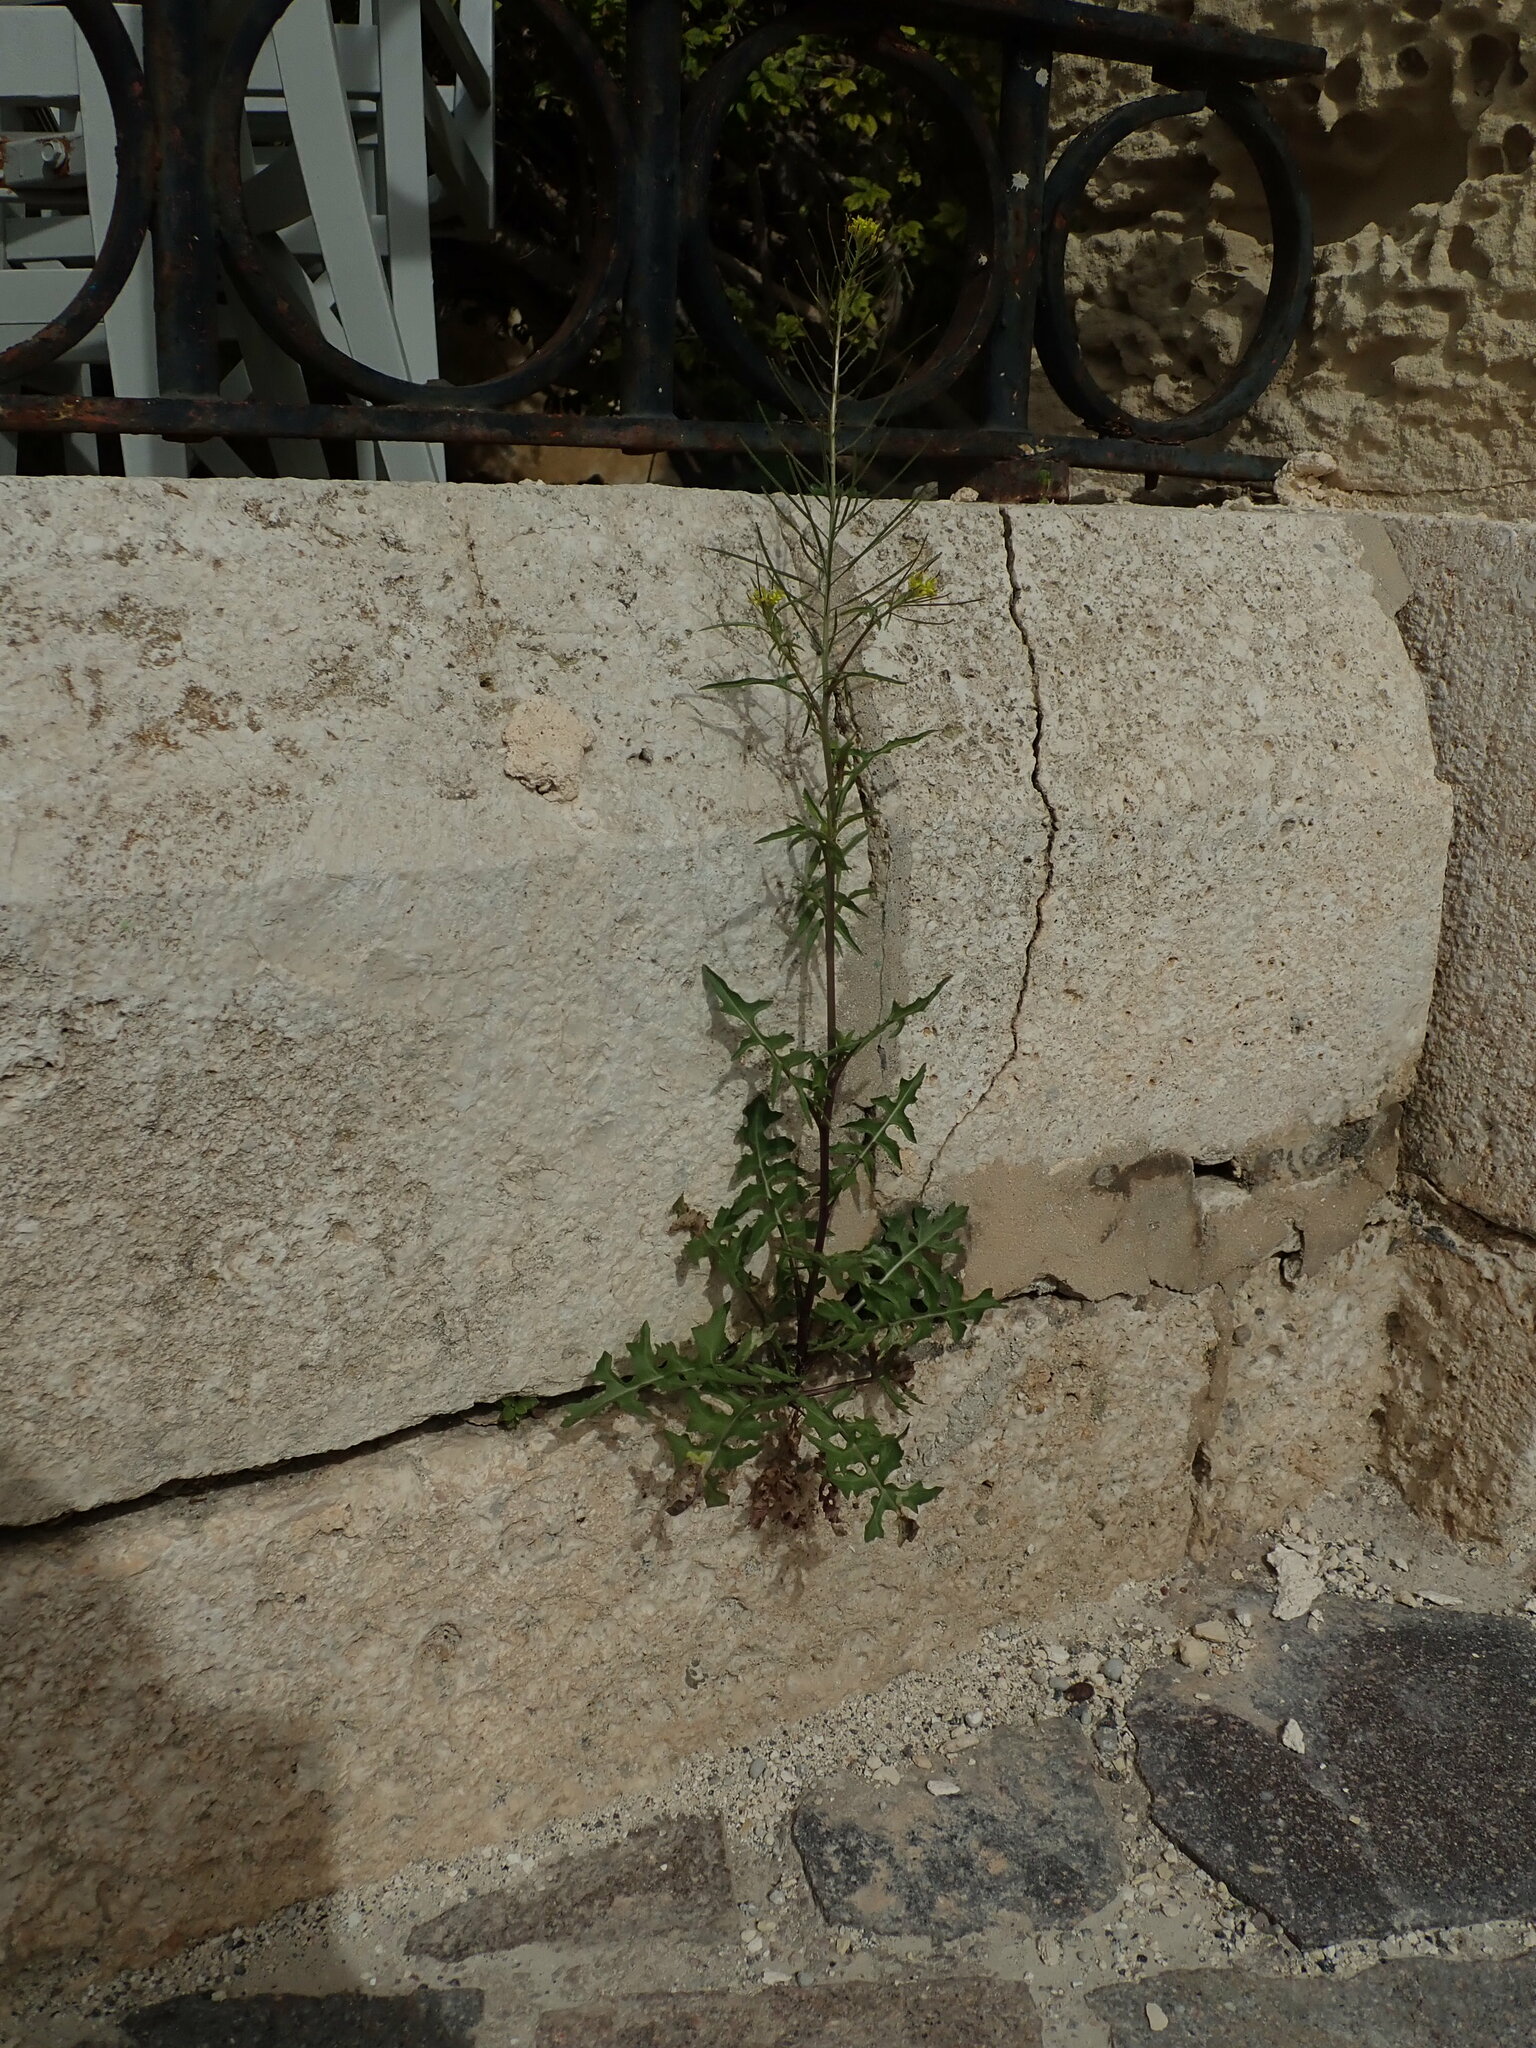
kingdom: Plantae
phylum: Tracheophyta
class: Magnoliopsida
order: Brassicales
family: Brassicaceae
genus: Sisymbrium
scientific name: Sisymbrium irio
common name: London rocket
